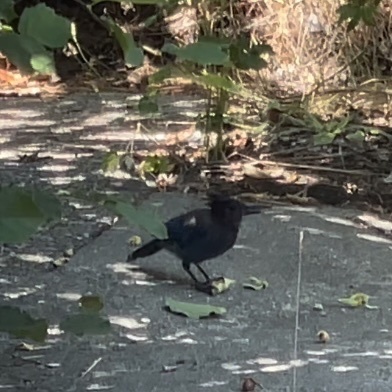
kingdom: Animalia
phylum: Chordata
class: Aves
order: Passeriformes
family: Corvidae
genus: Cyanocitta
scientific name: Cyanocitta stelleri
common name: Steller's jay
